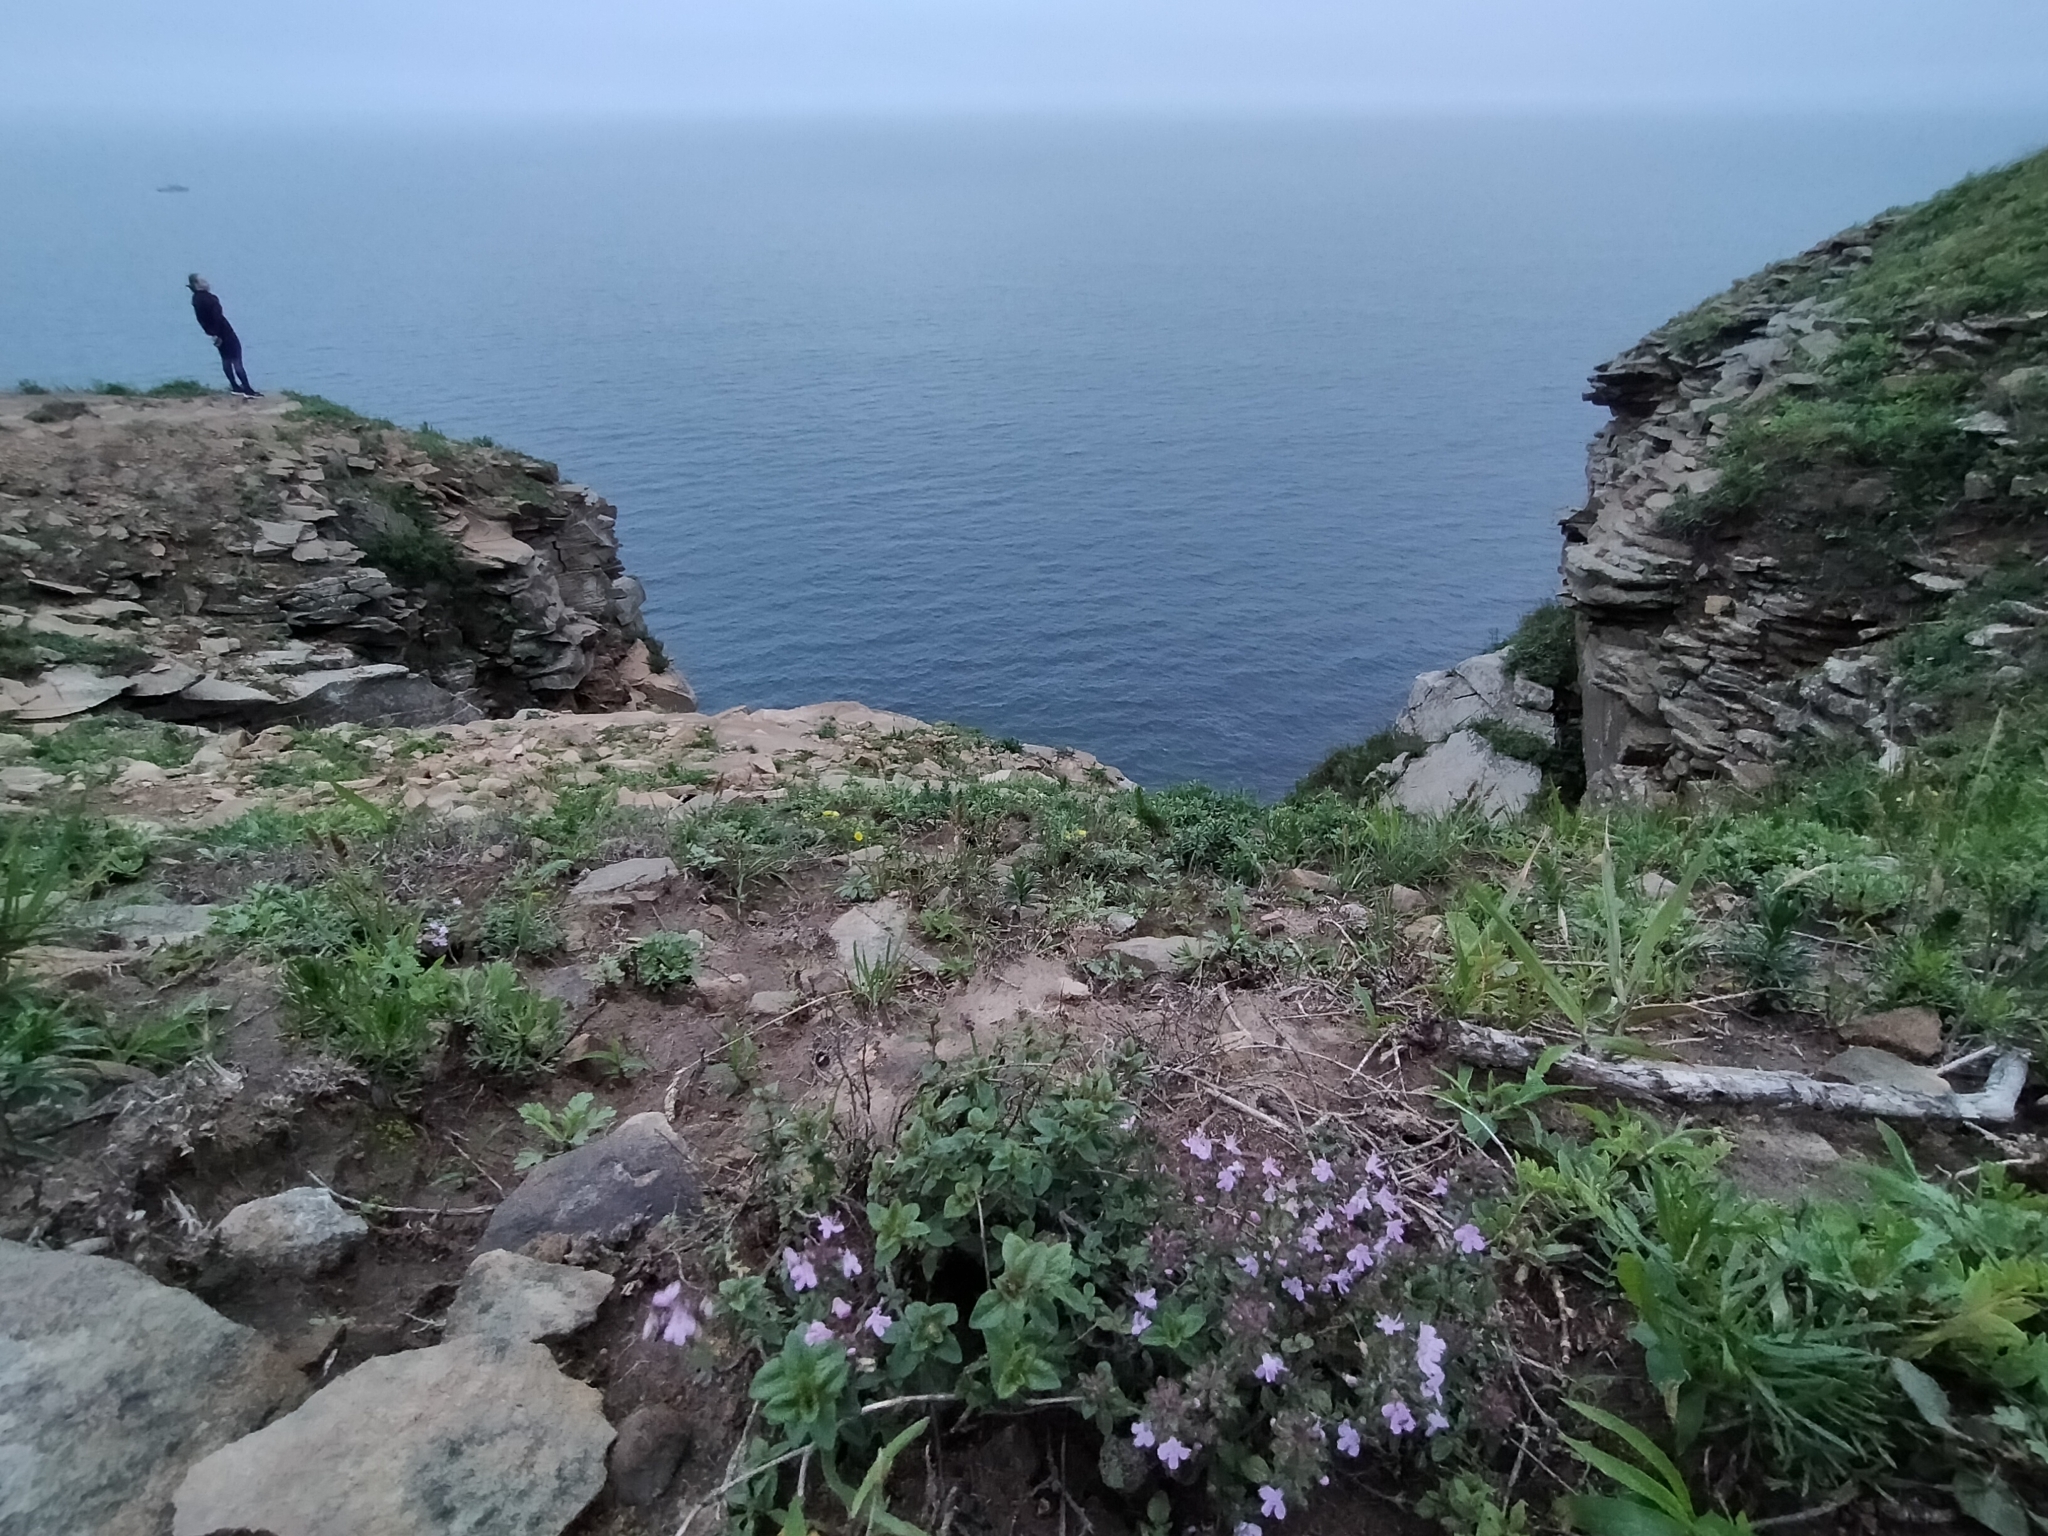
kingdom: Plantae
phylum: Tracheophyta
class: Magnoliopsida
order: Lamiales
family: Lamiaceae
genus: Thymus
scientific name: Thymus semiglaber
